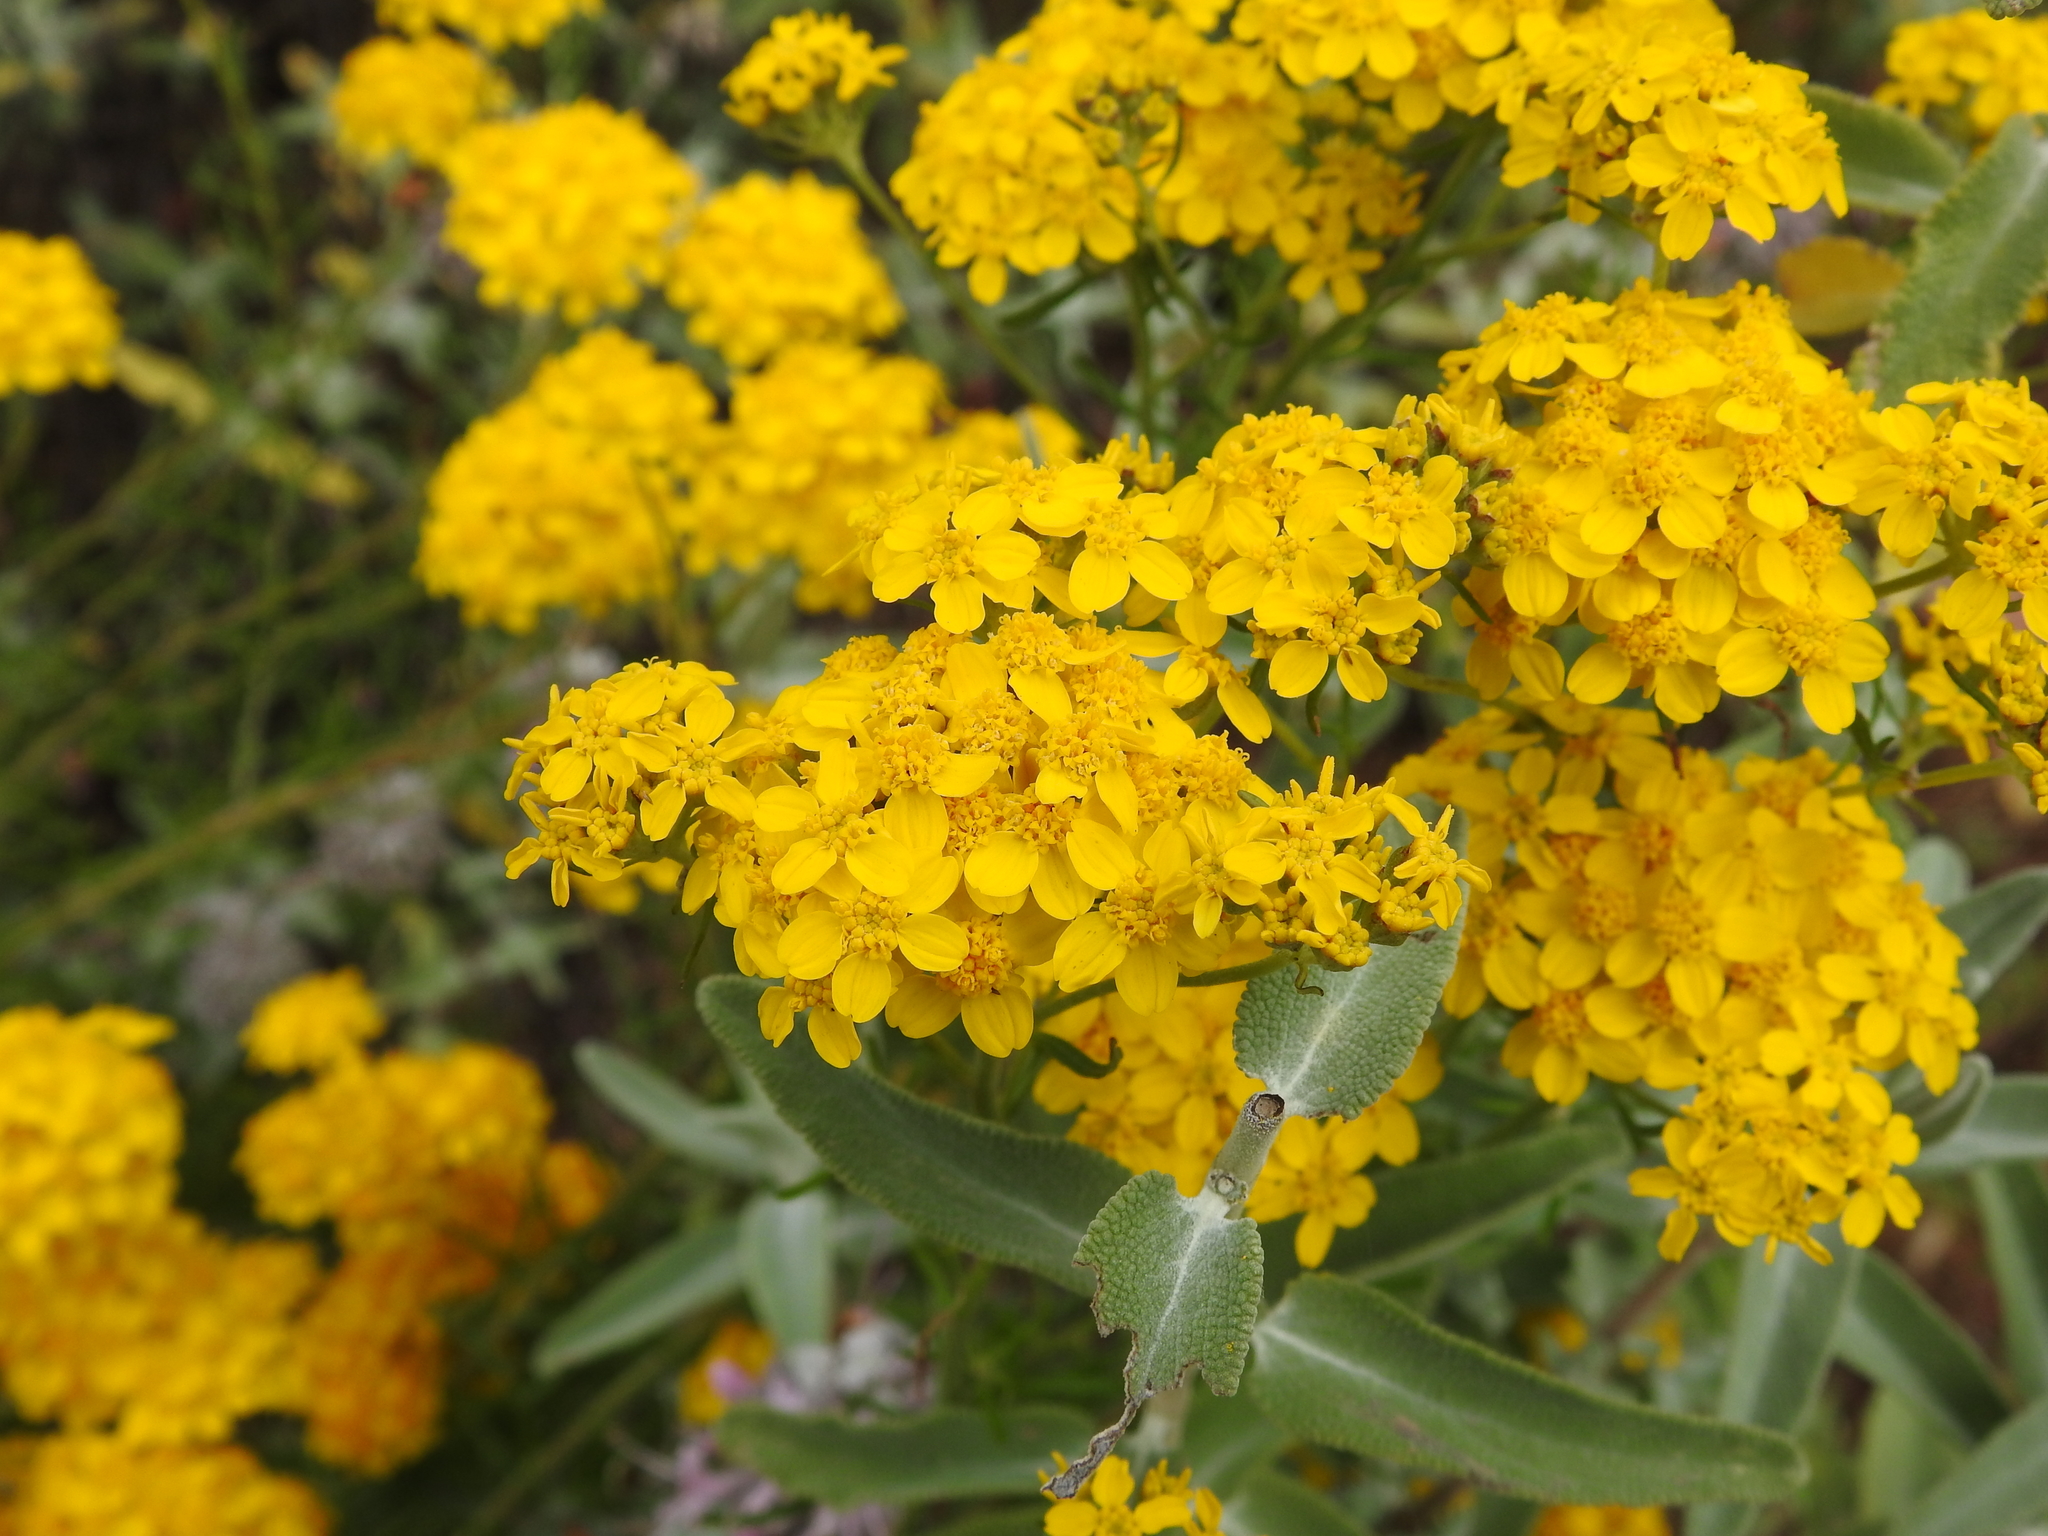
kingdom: Plantae
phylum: Tracheophyta
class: Magnoliopsida
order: Asterales
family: Asteraceae
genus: Eriophyllum
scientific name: Eriophyllum confertiflorum
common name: Golden-yarrow
